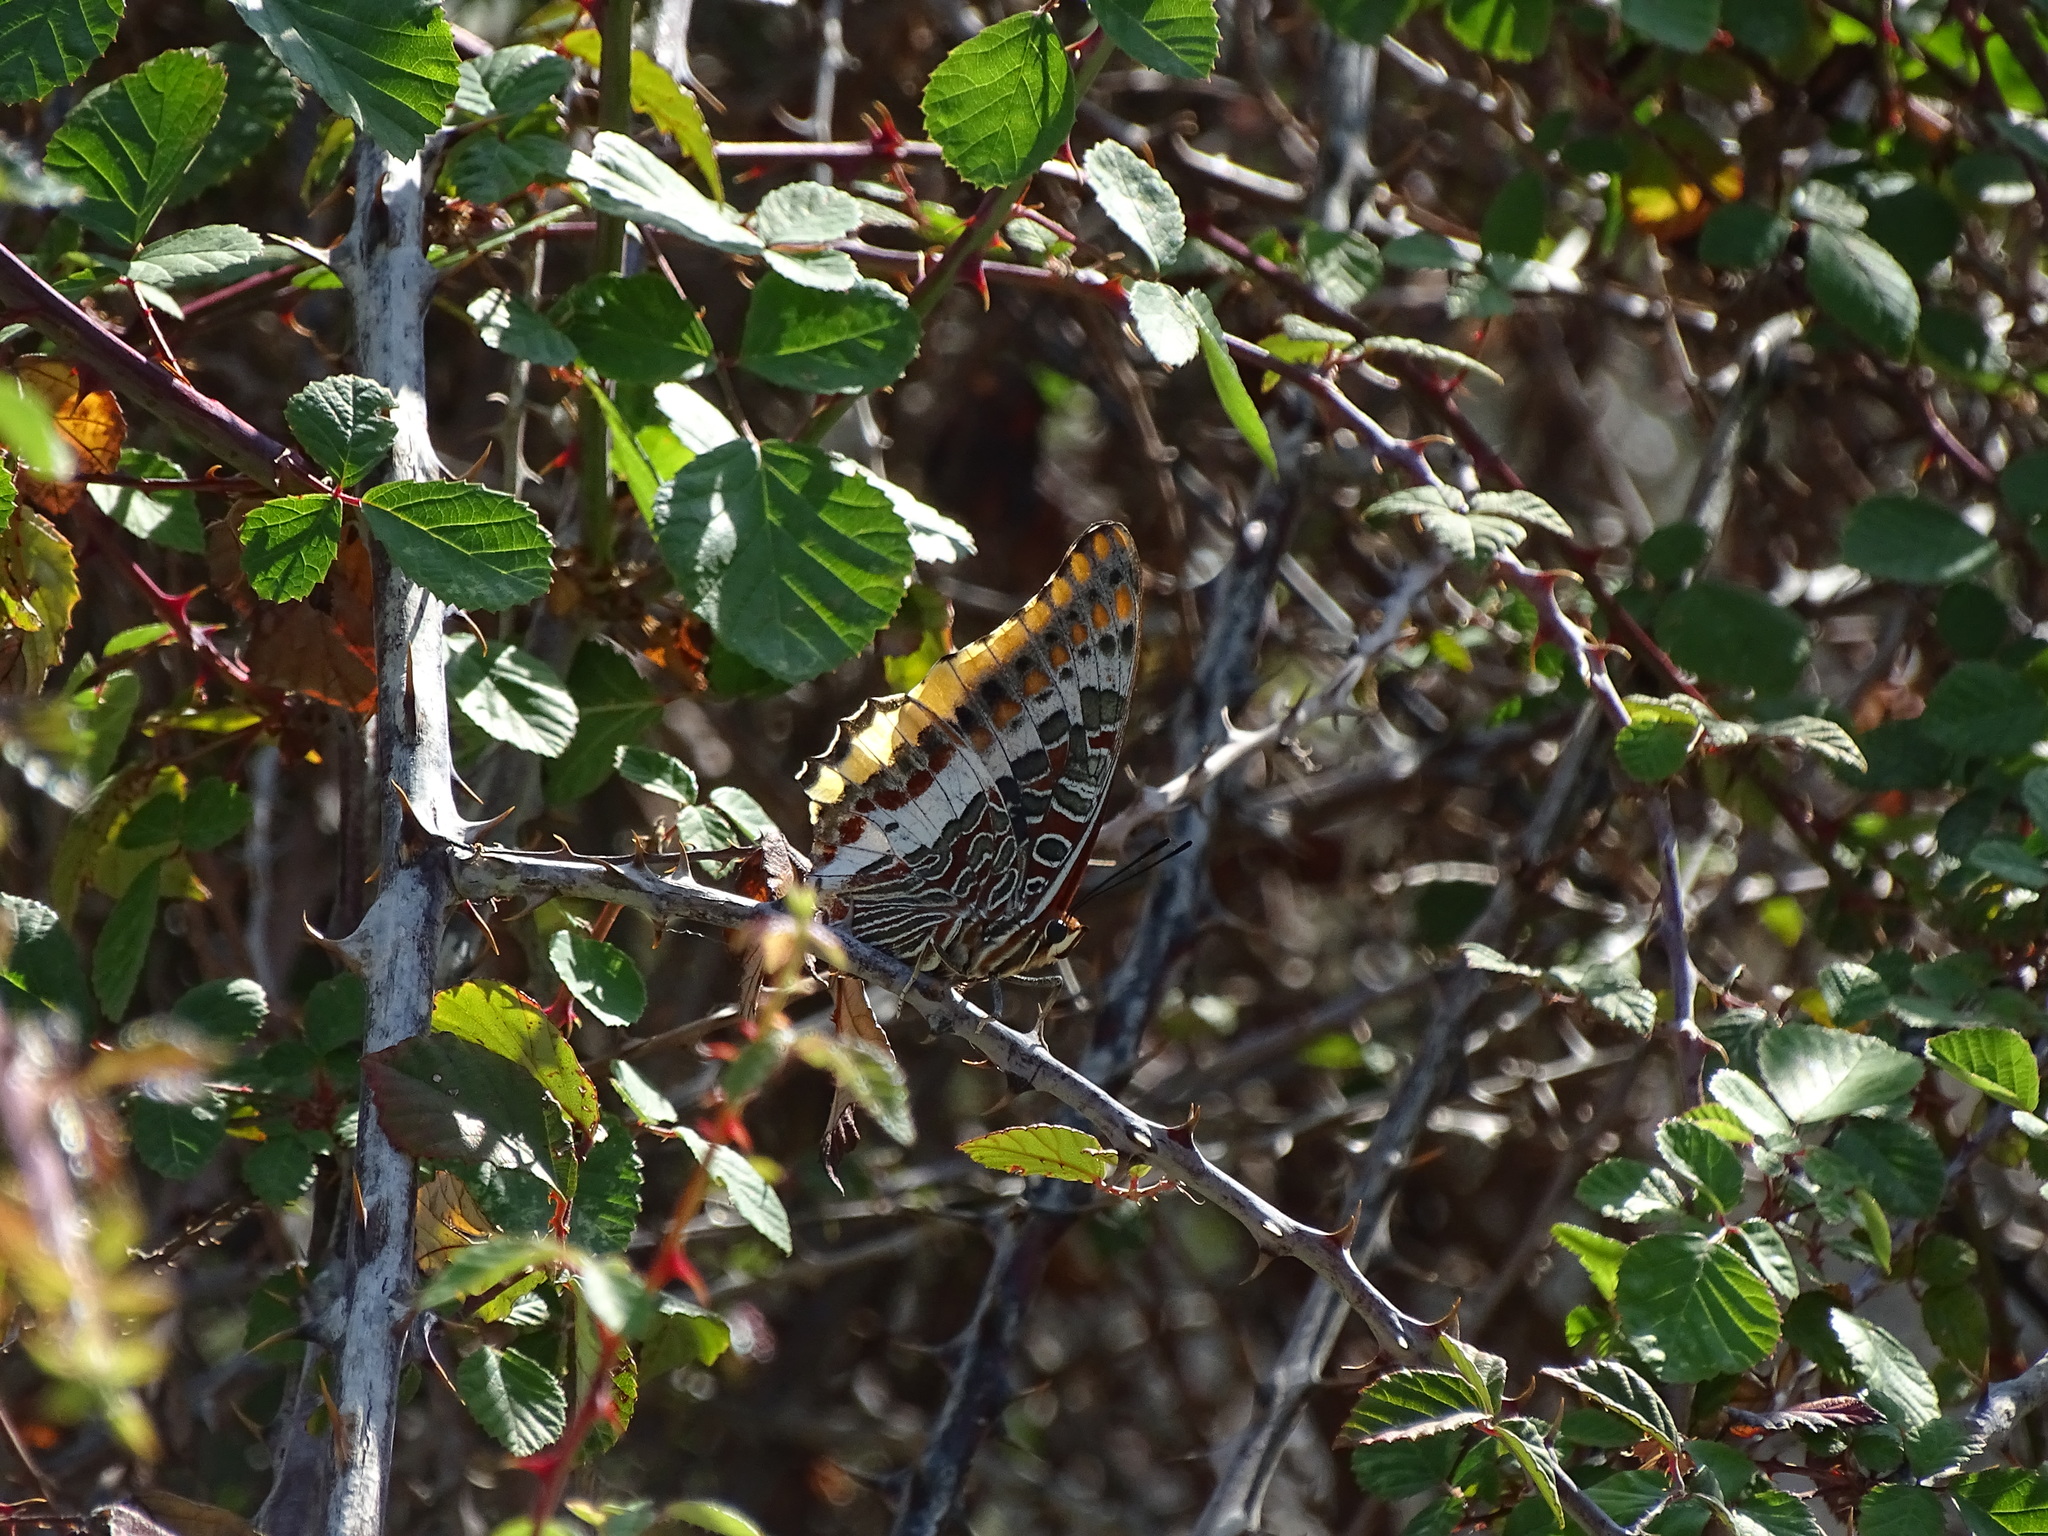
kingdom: Animalia
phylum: Arthropoda
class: Insecta
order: Lepidoptera
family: Nymphalidae
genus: Charaxes
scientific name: Charaxes jasius
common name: Two tailed pasha
